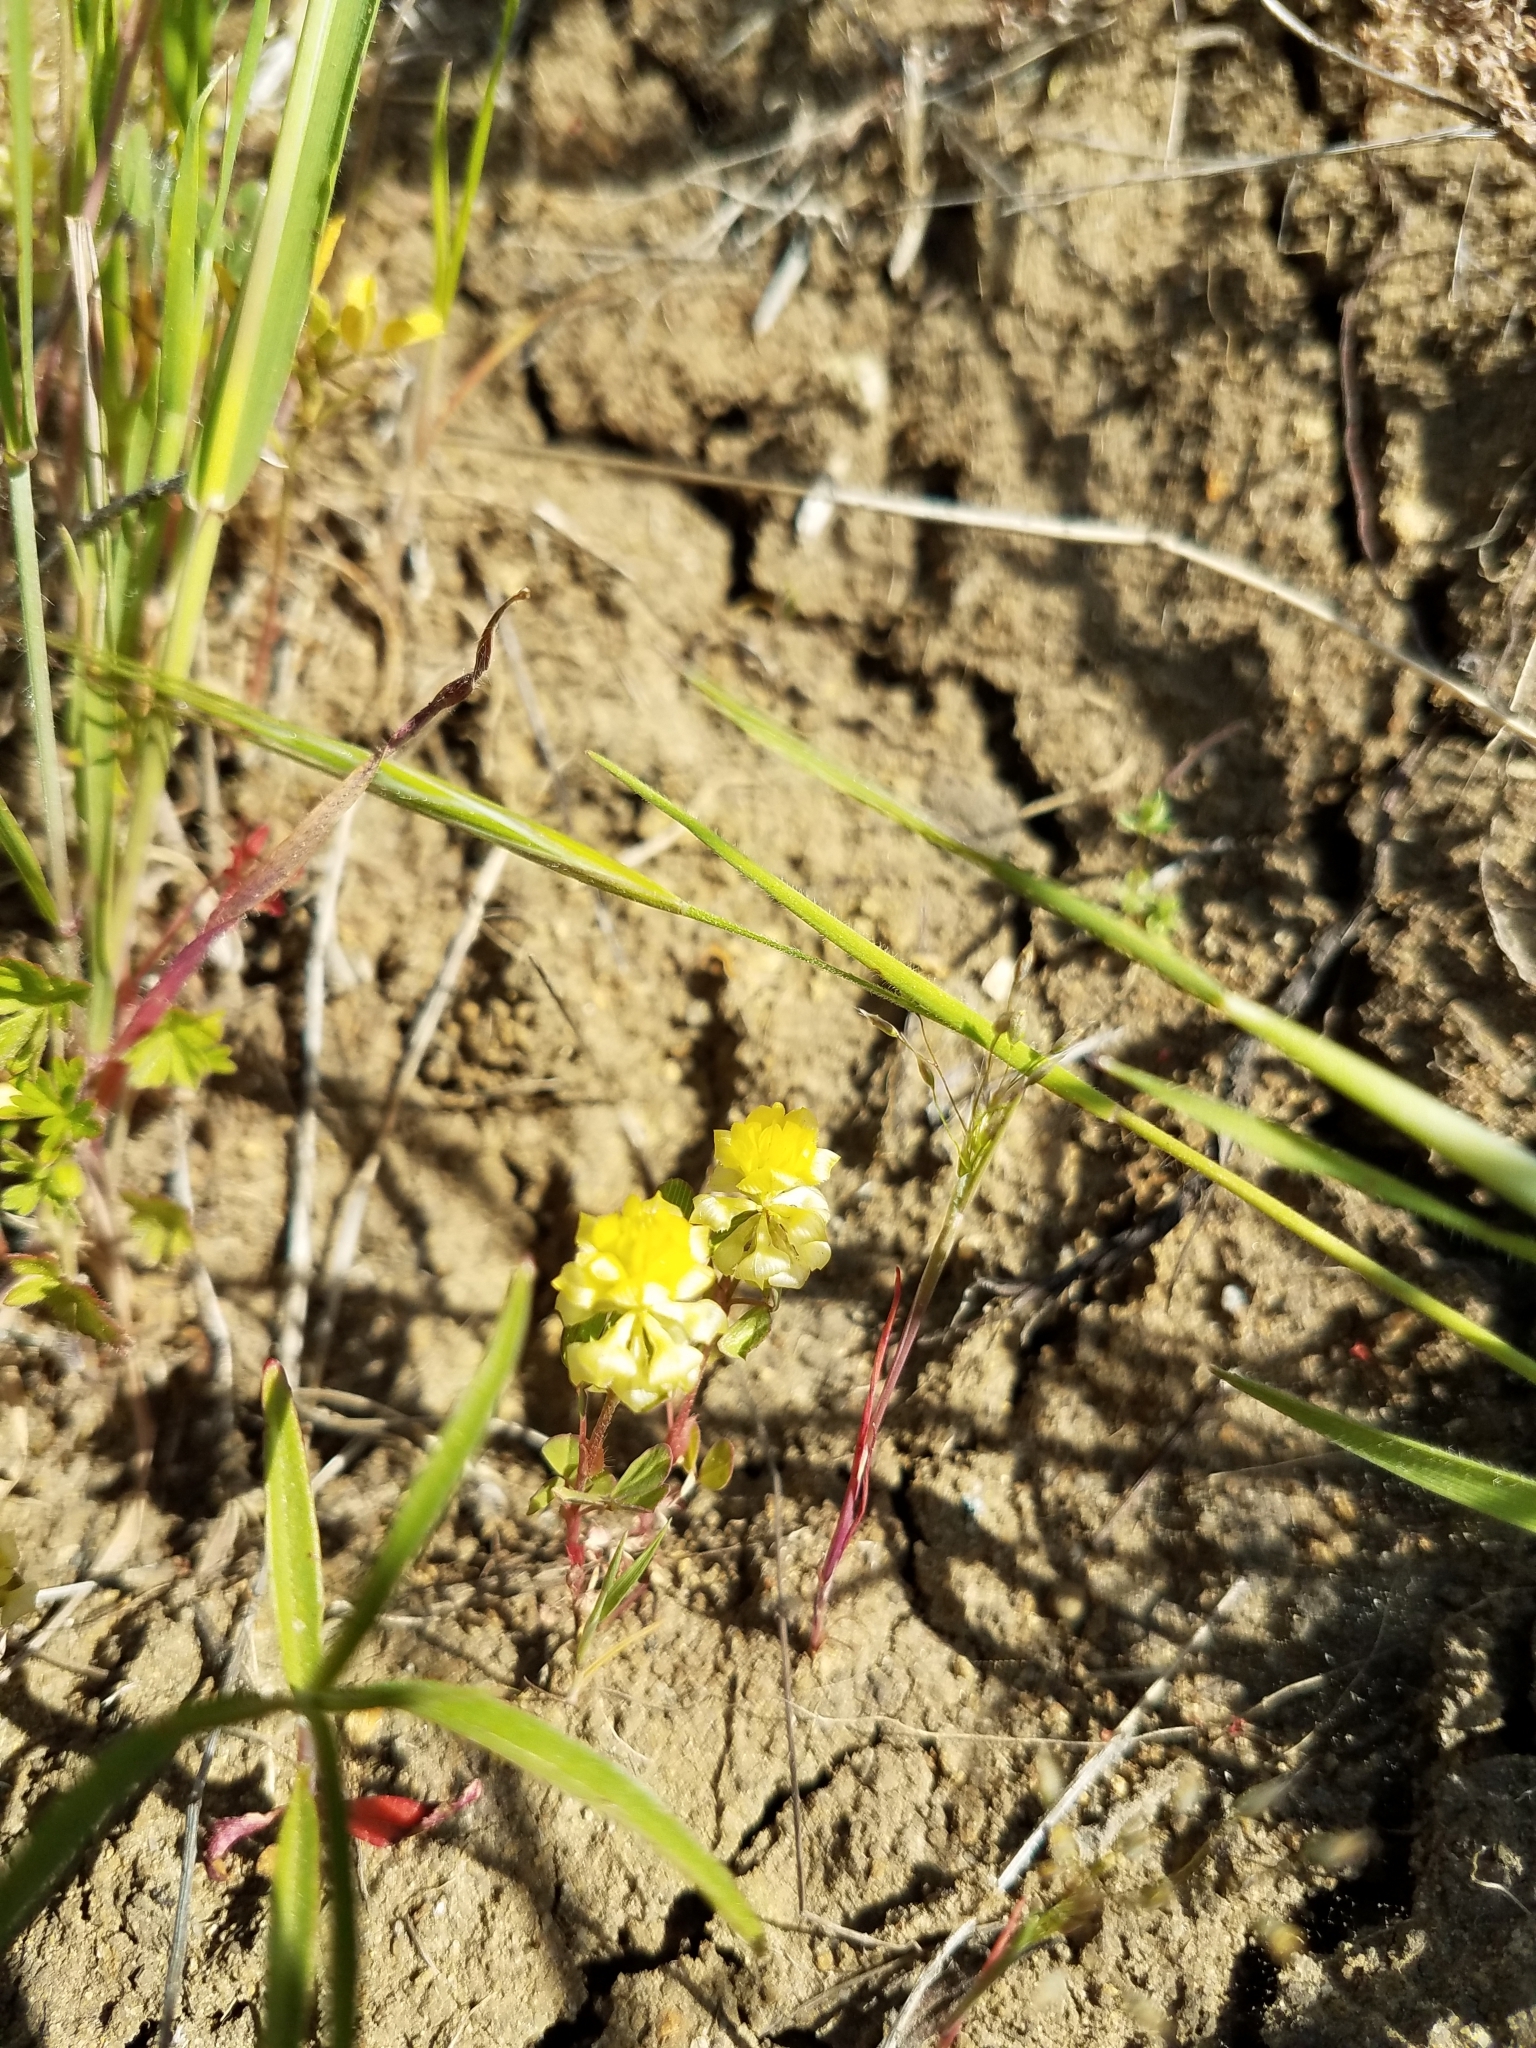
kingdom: Plantae
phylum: Tracheophyta
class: Magnoliopsida
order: Fabales
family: Fabaceae
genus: Trifolium
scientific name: Trifolium campestre
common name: Field clover
